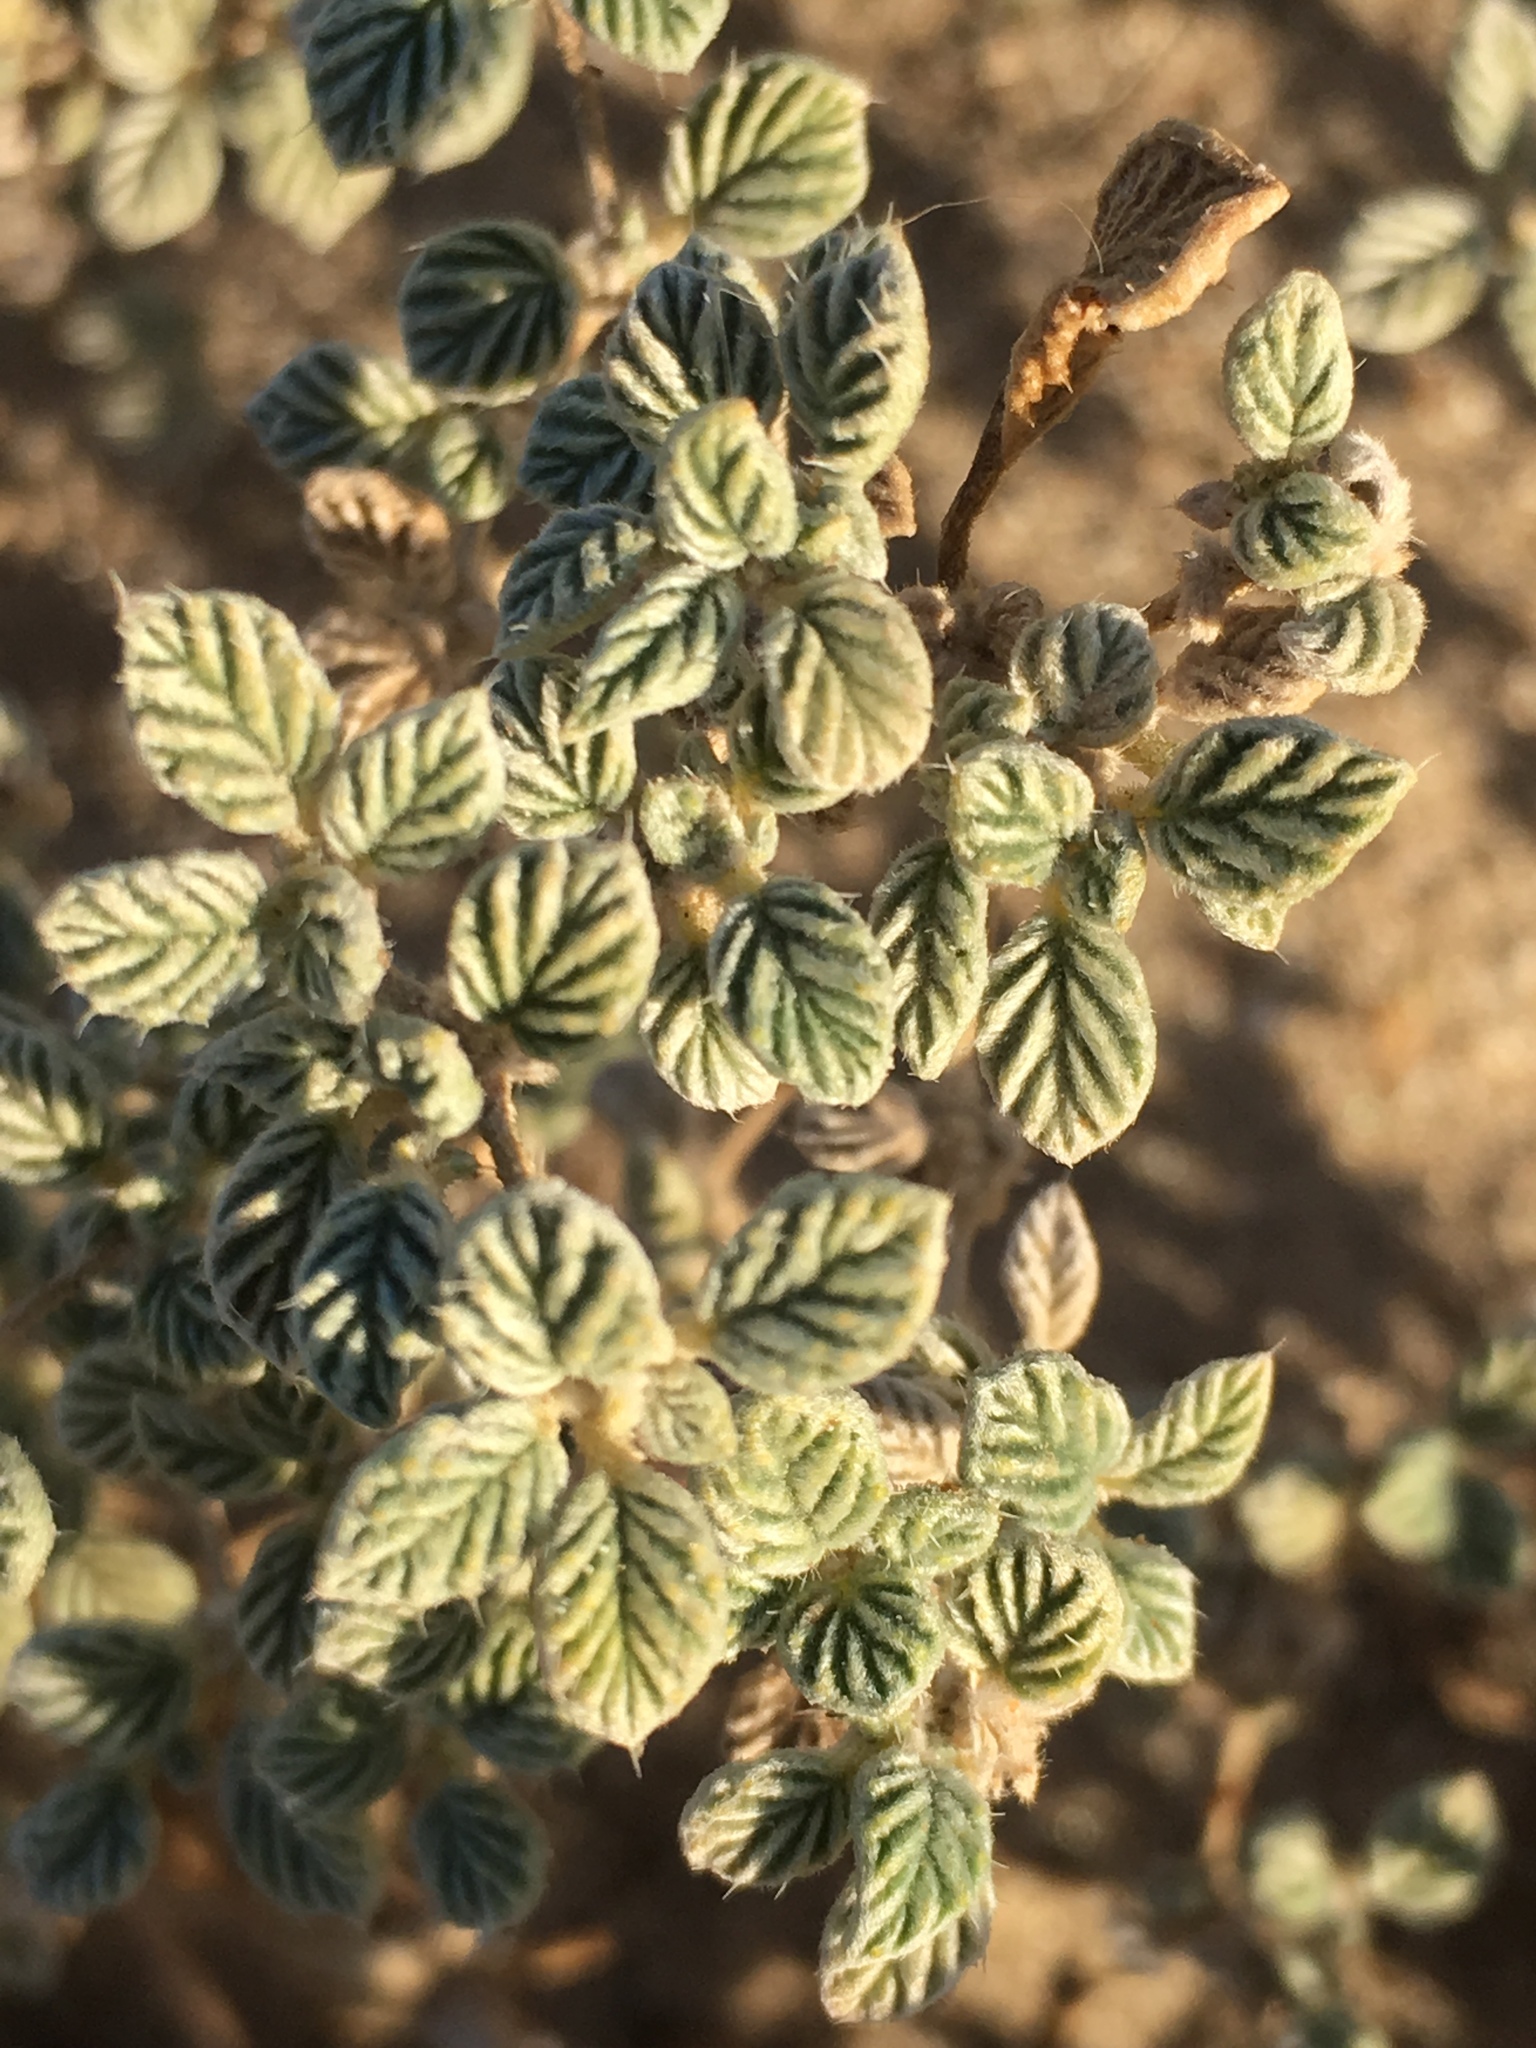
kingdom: Plantae
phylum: Tracheophyta
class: Magnoliopsida
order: Boraginales
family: Ehretiaceae
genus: Tiquilia
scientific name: Tiquilia plicata
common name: Fan-leaf tiquilia
